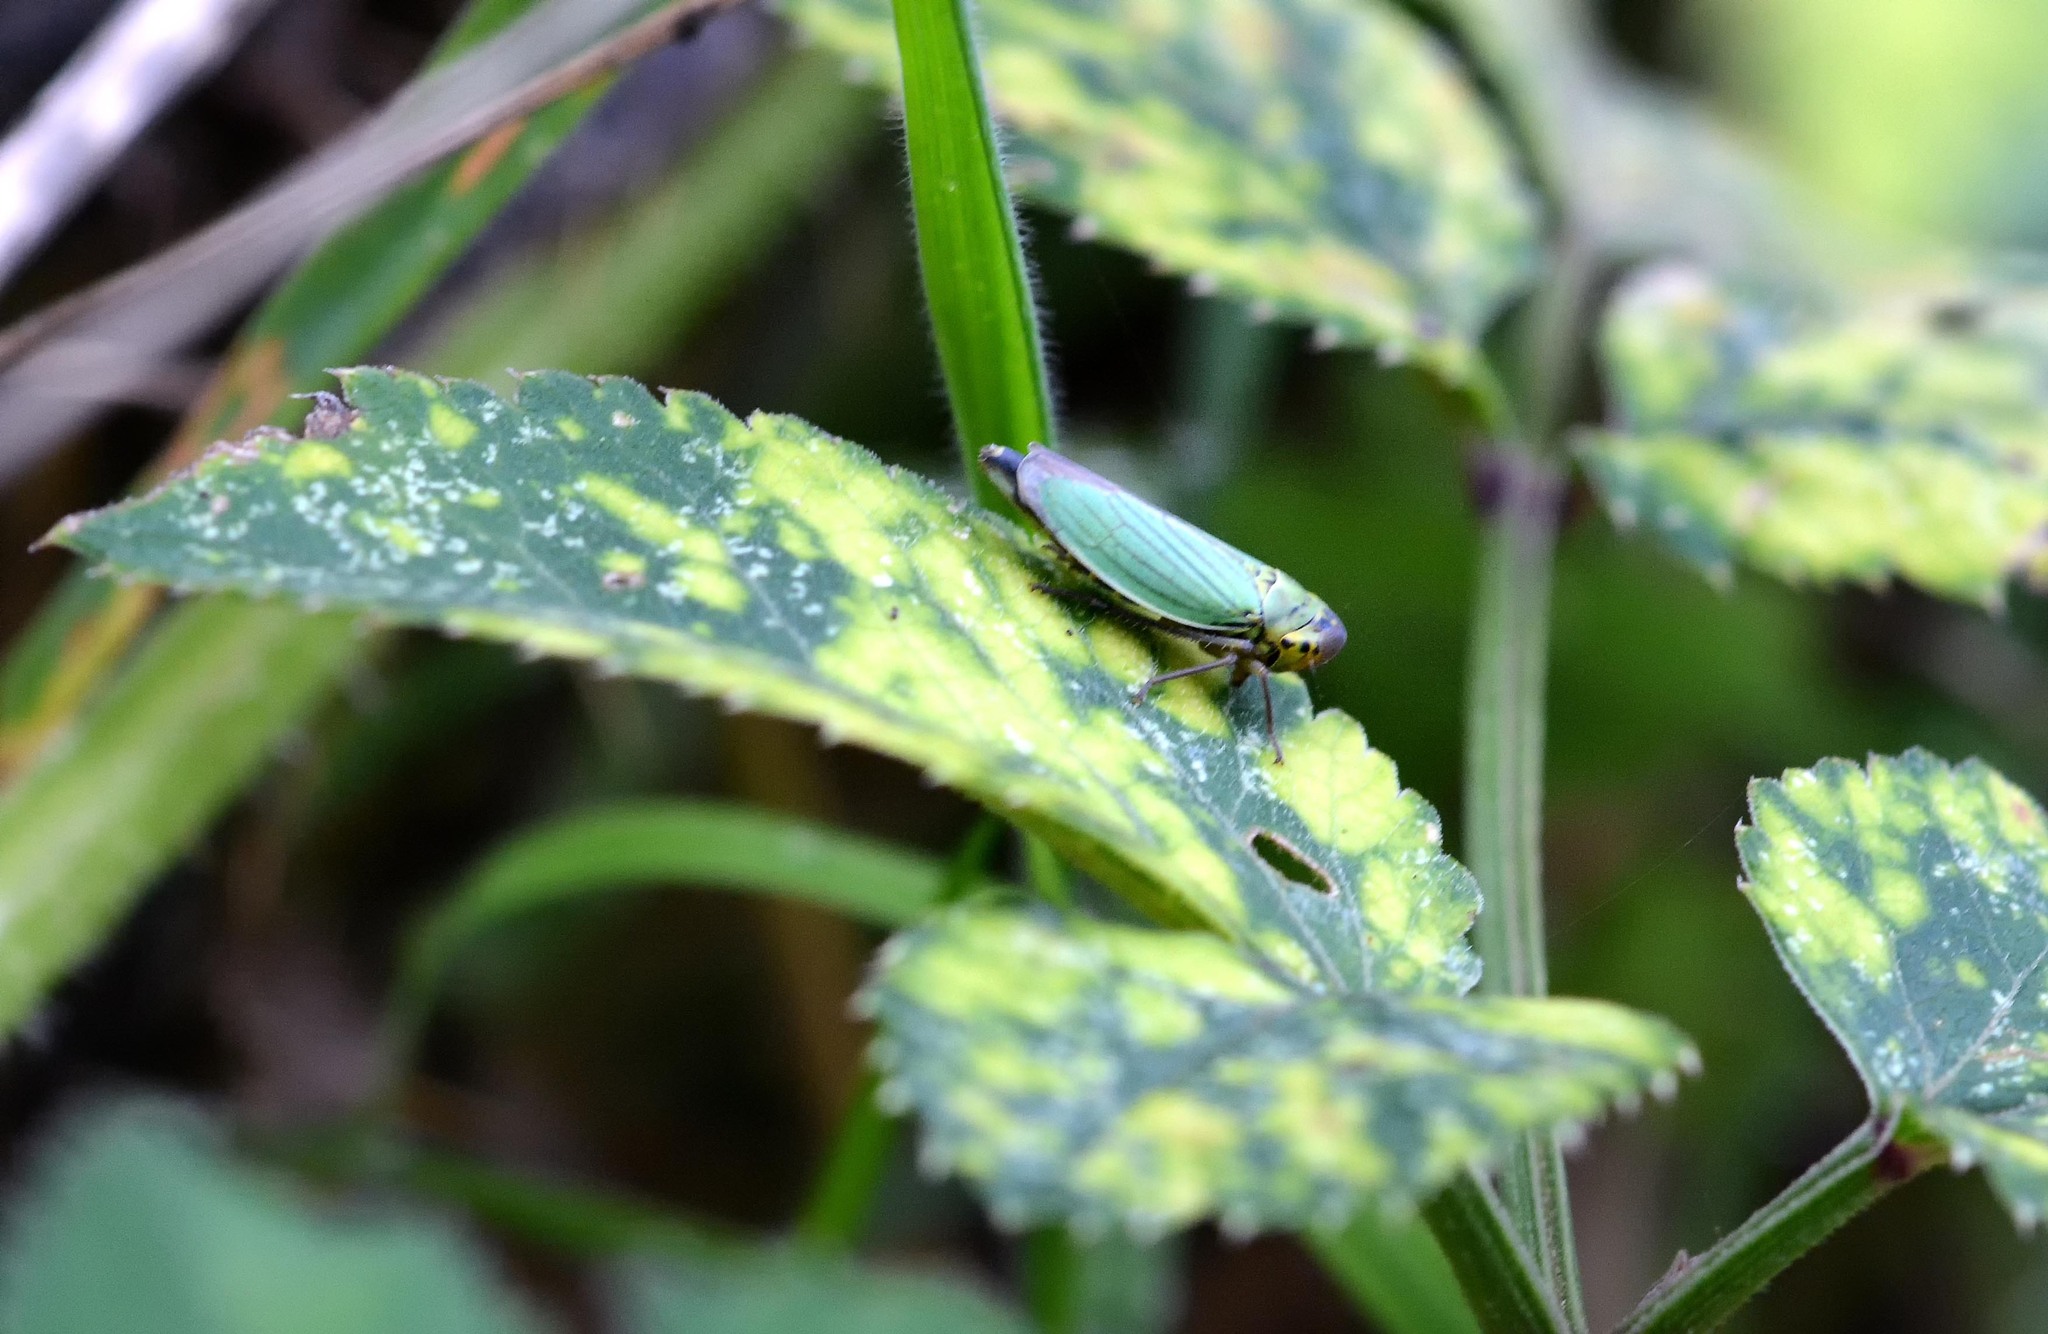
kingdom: Animalia
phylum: Arthropoda
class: Insecta
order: Hemiptera
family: Cicadellidae
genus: Cicadella
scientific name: Cicadella viridis
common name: Leafhopper
